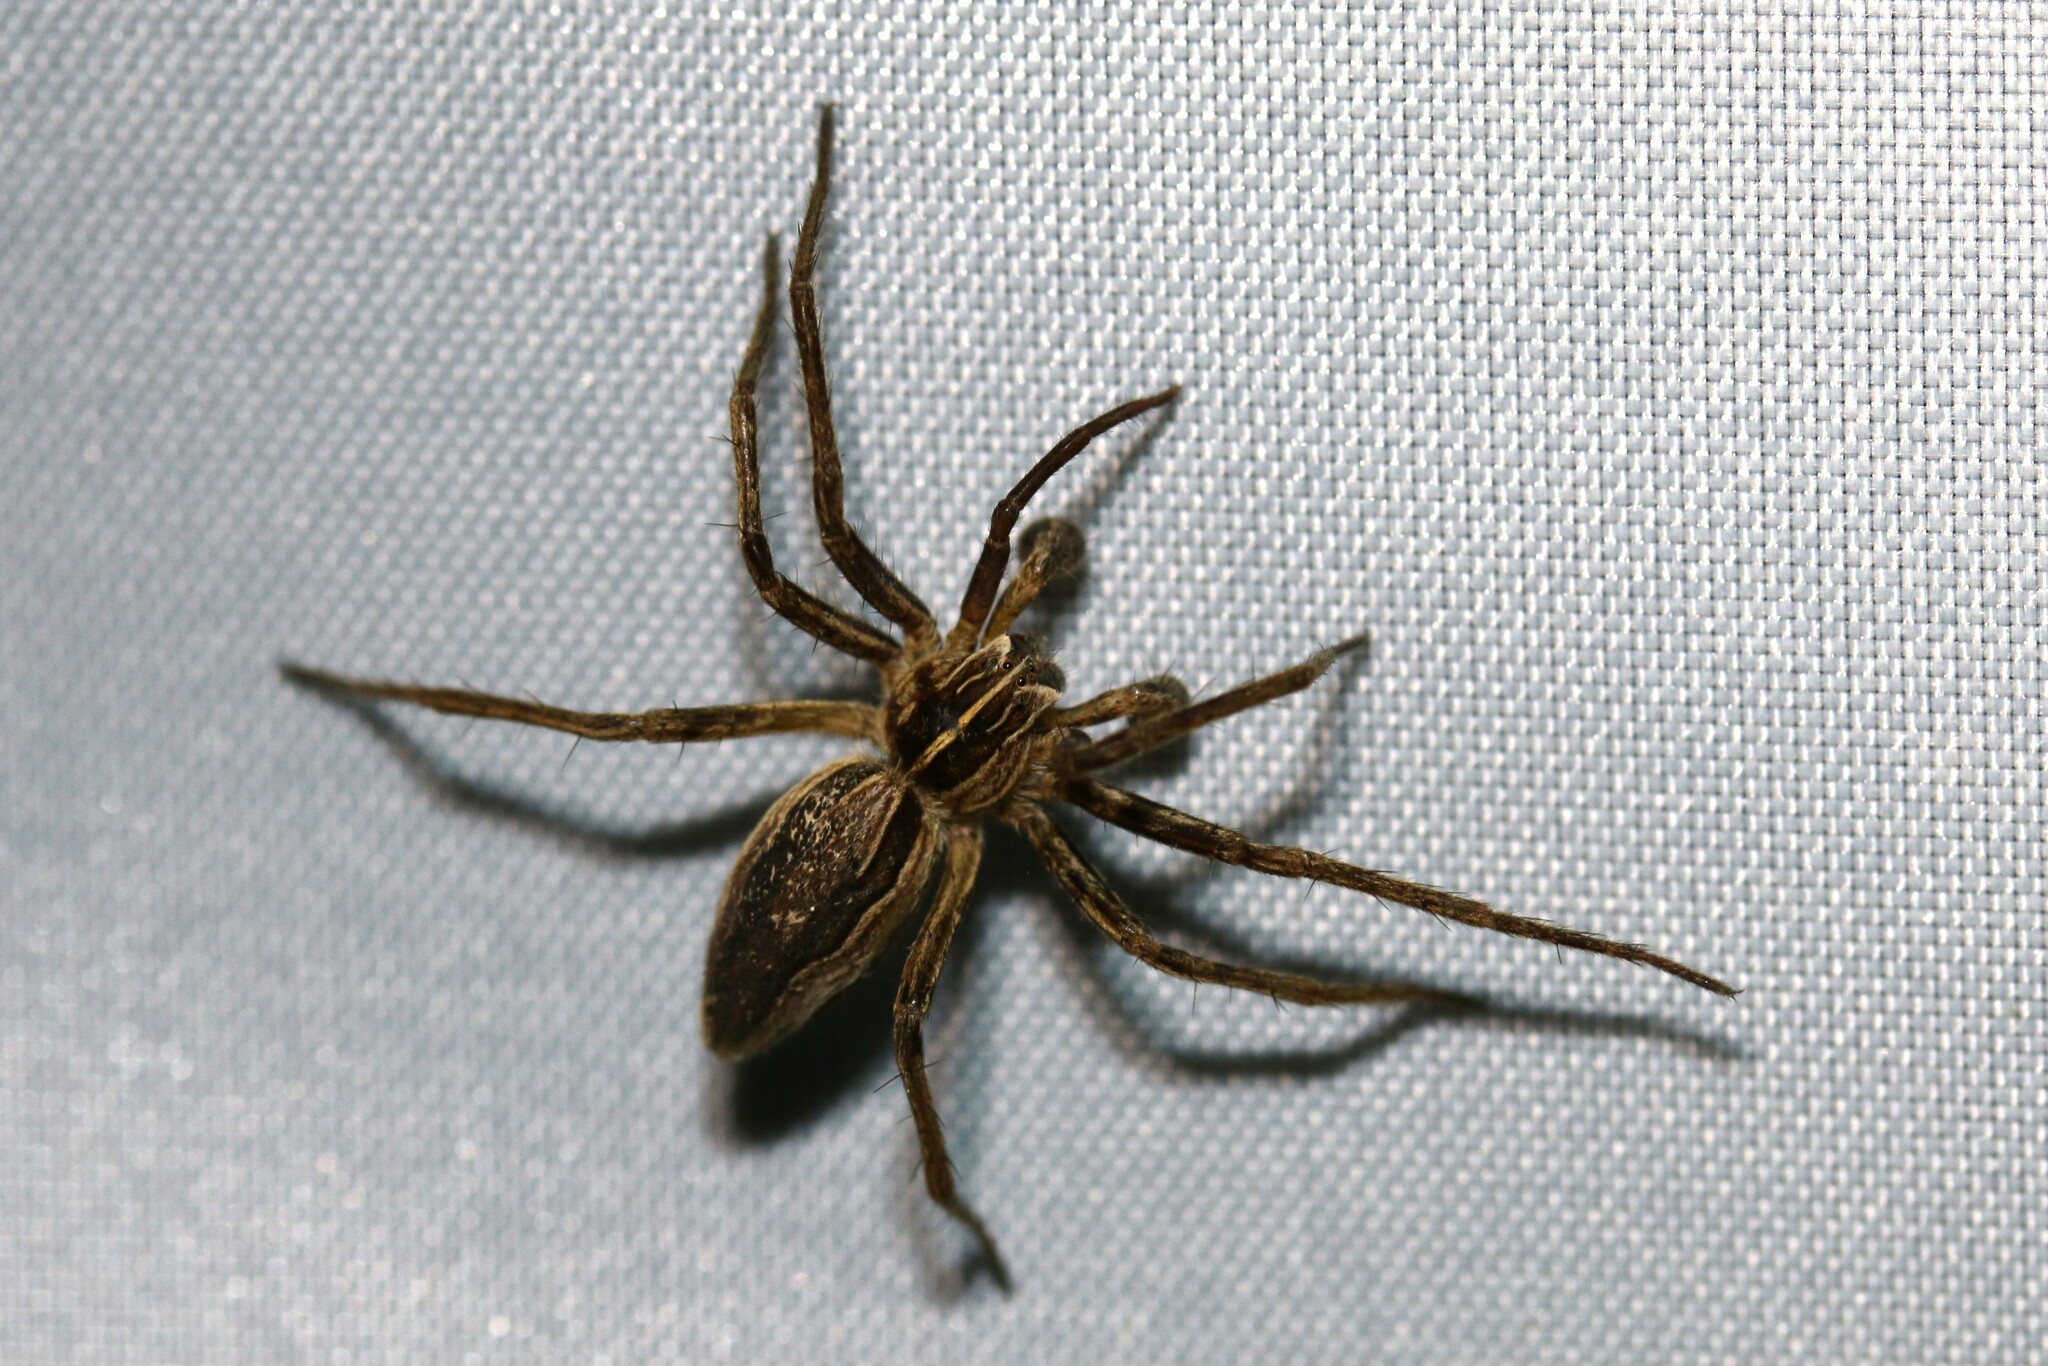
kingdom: Animalia
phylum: Arthropoda
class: Arachnida
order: Araneae
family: Pisauridae
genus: Pisaura
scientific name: Pisaura mirabilis
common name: Tent spider
